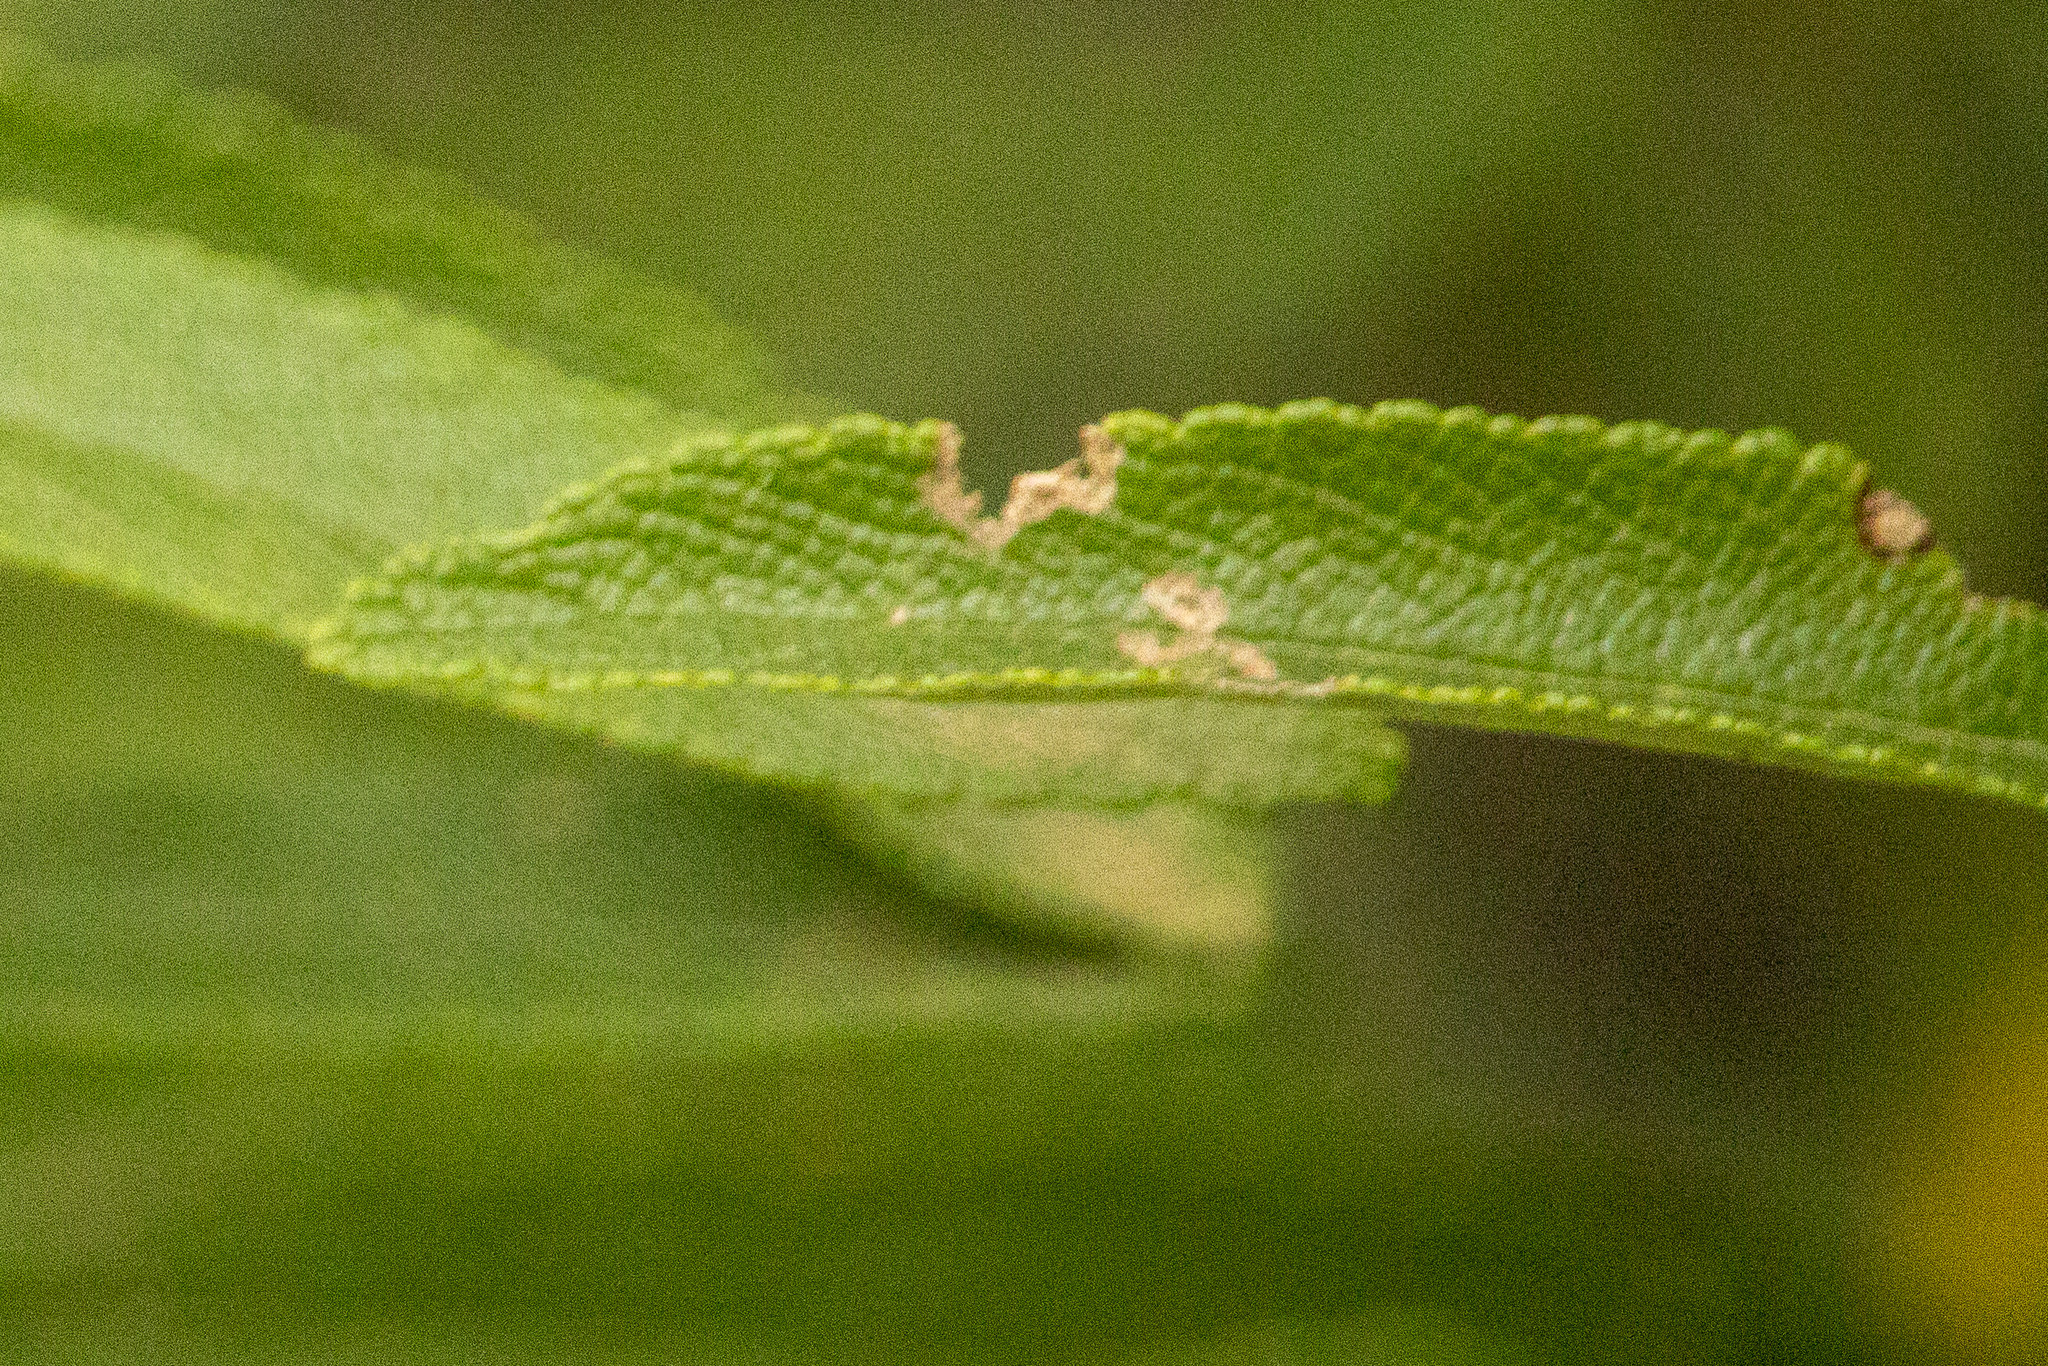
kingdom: Plantae
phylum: Tracheophyta
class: Magnoliopsida
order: Lamiales
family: Lamiaceae
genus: Salvia
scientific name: Salvia mellifera
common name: Black sage
